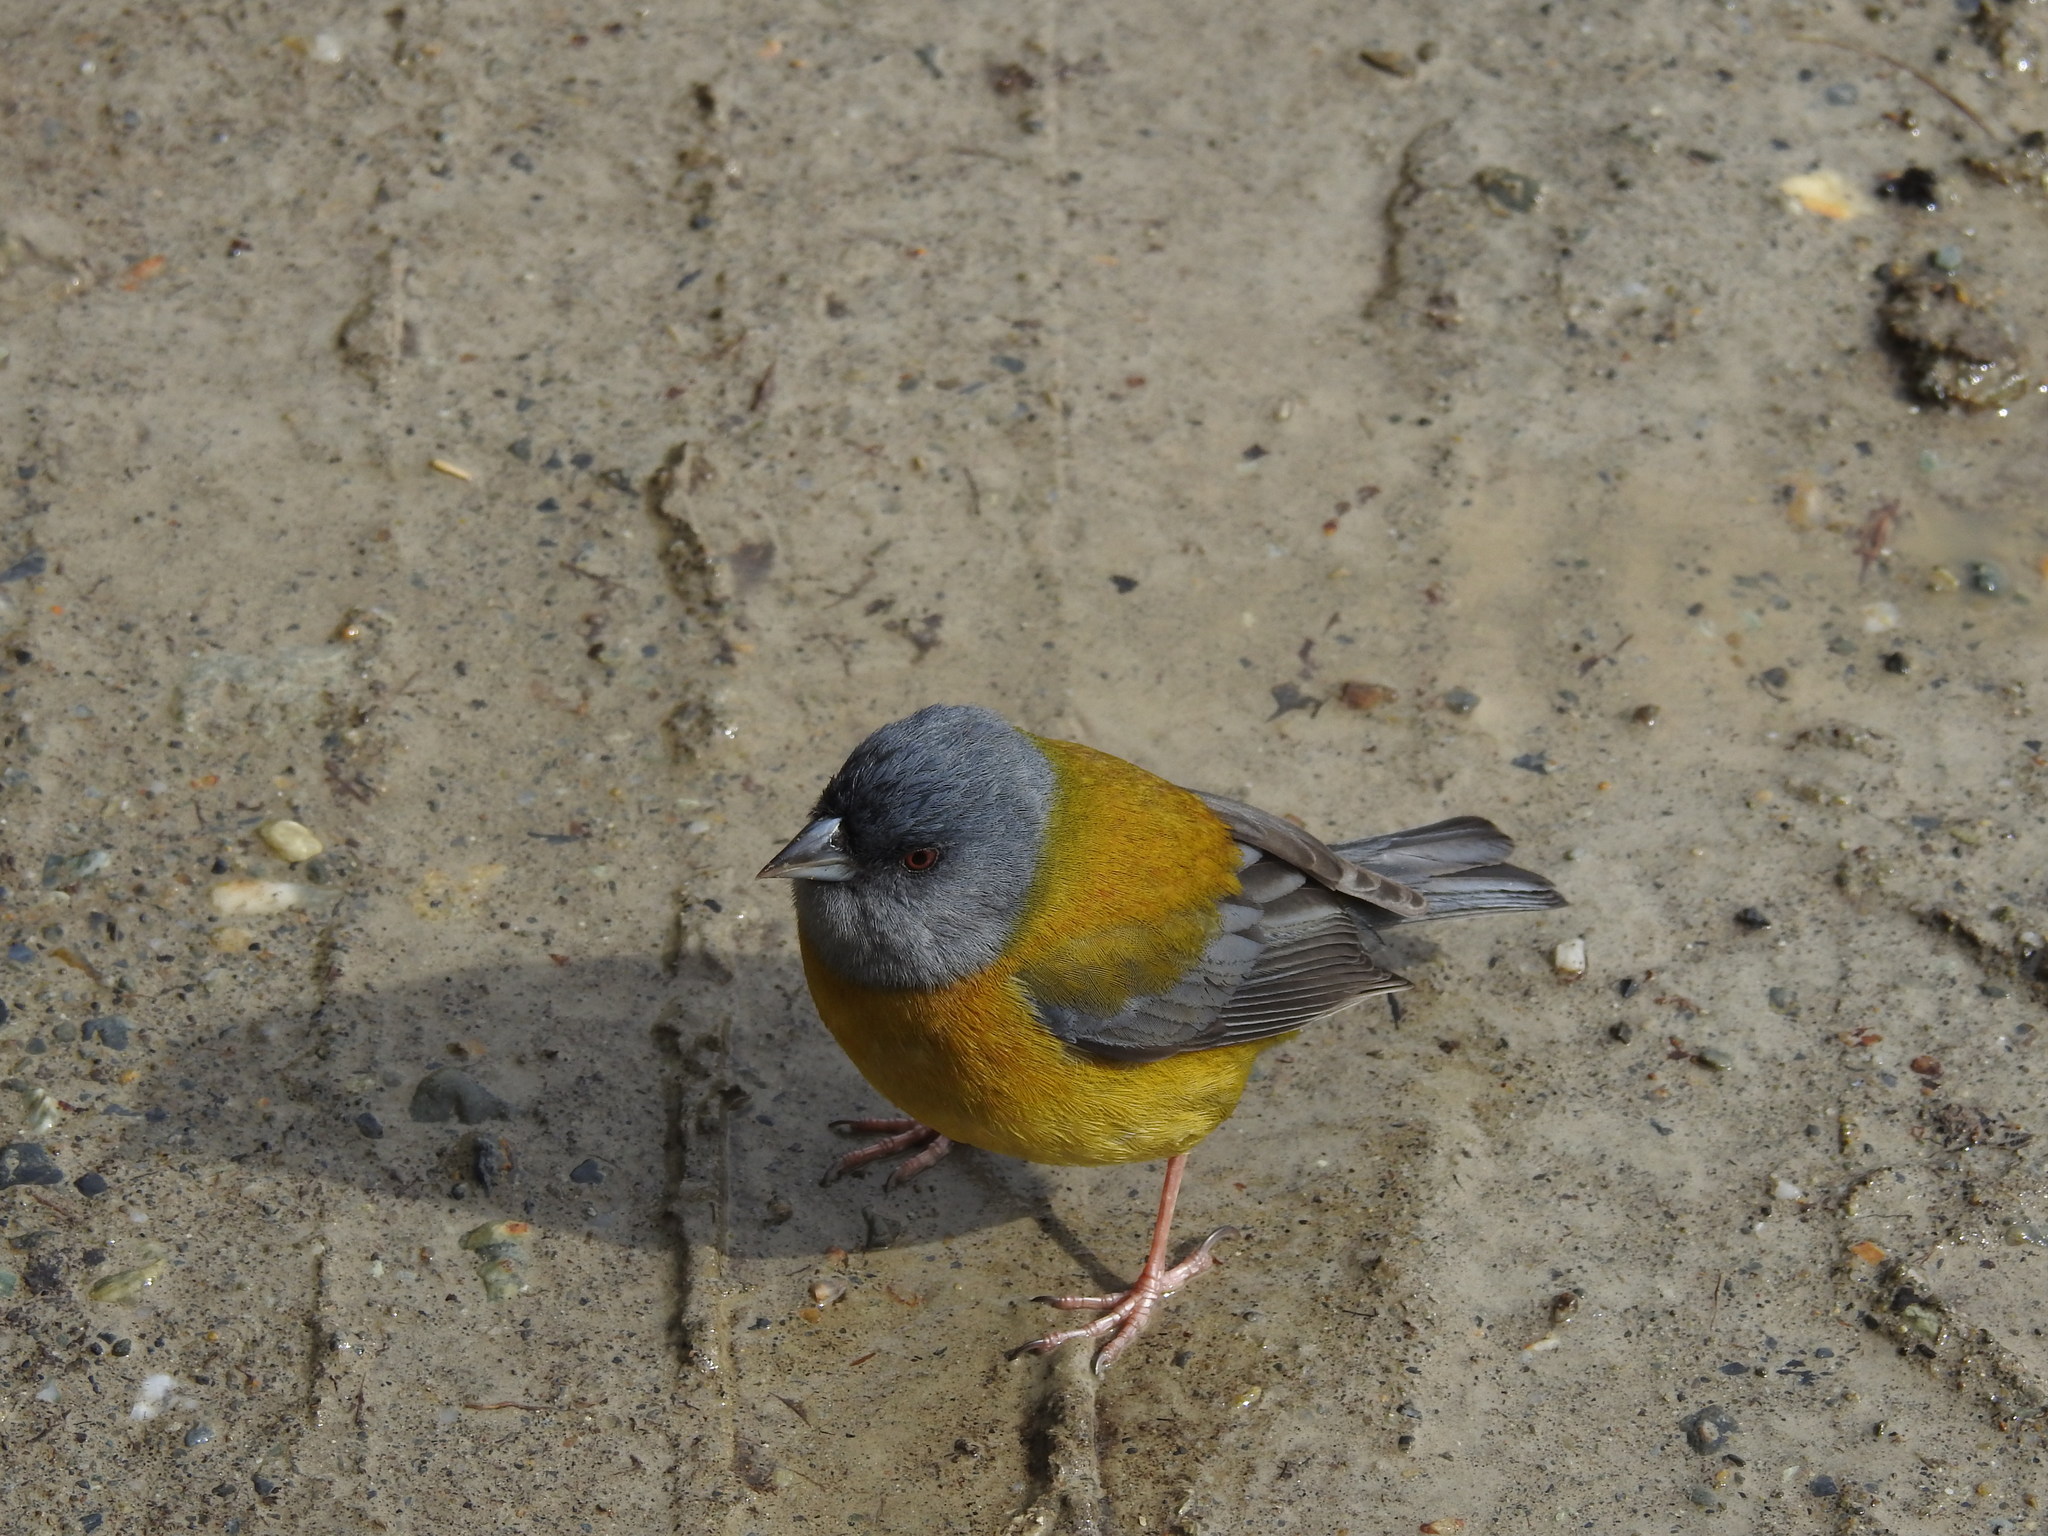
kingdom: Animalia
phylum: Chordata
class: Aves
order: Passeriformes
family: Thraupidae
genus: Phrygilus
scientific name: Phrygilus patagonicus
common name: Patagonian sierra finch
